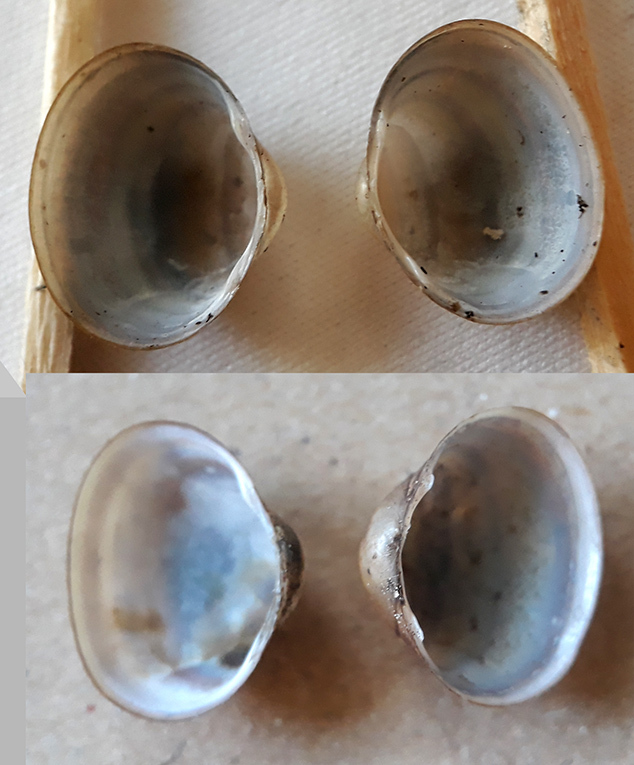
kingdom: Animalia
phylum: Mollusca
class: Bivalvia
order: Sphaeriida
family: Sphaeriidae
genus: Sphaerium
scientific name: Sphaerium corneum
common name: Horny orb mussel
